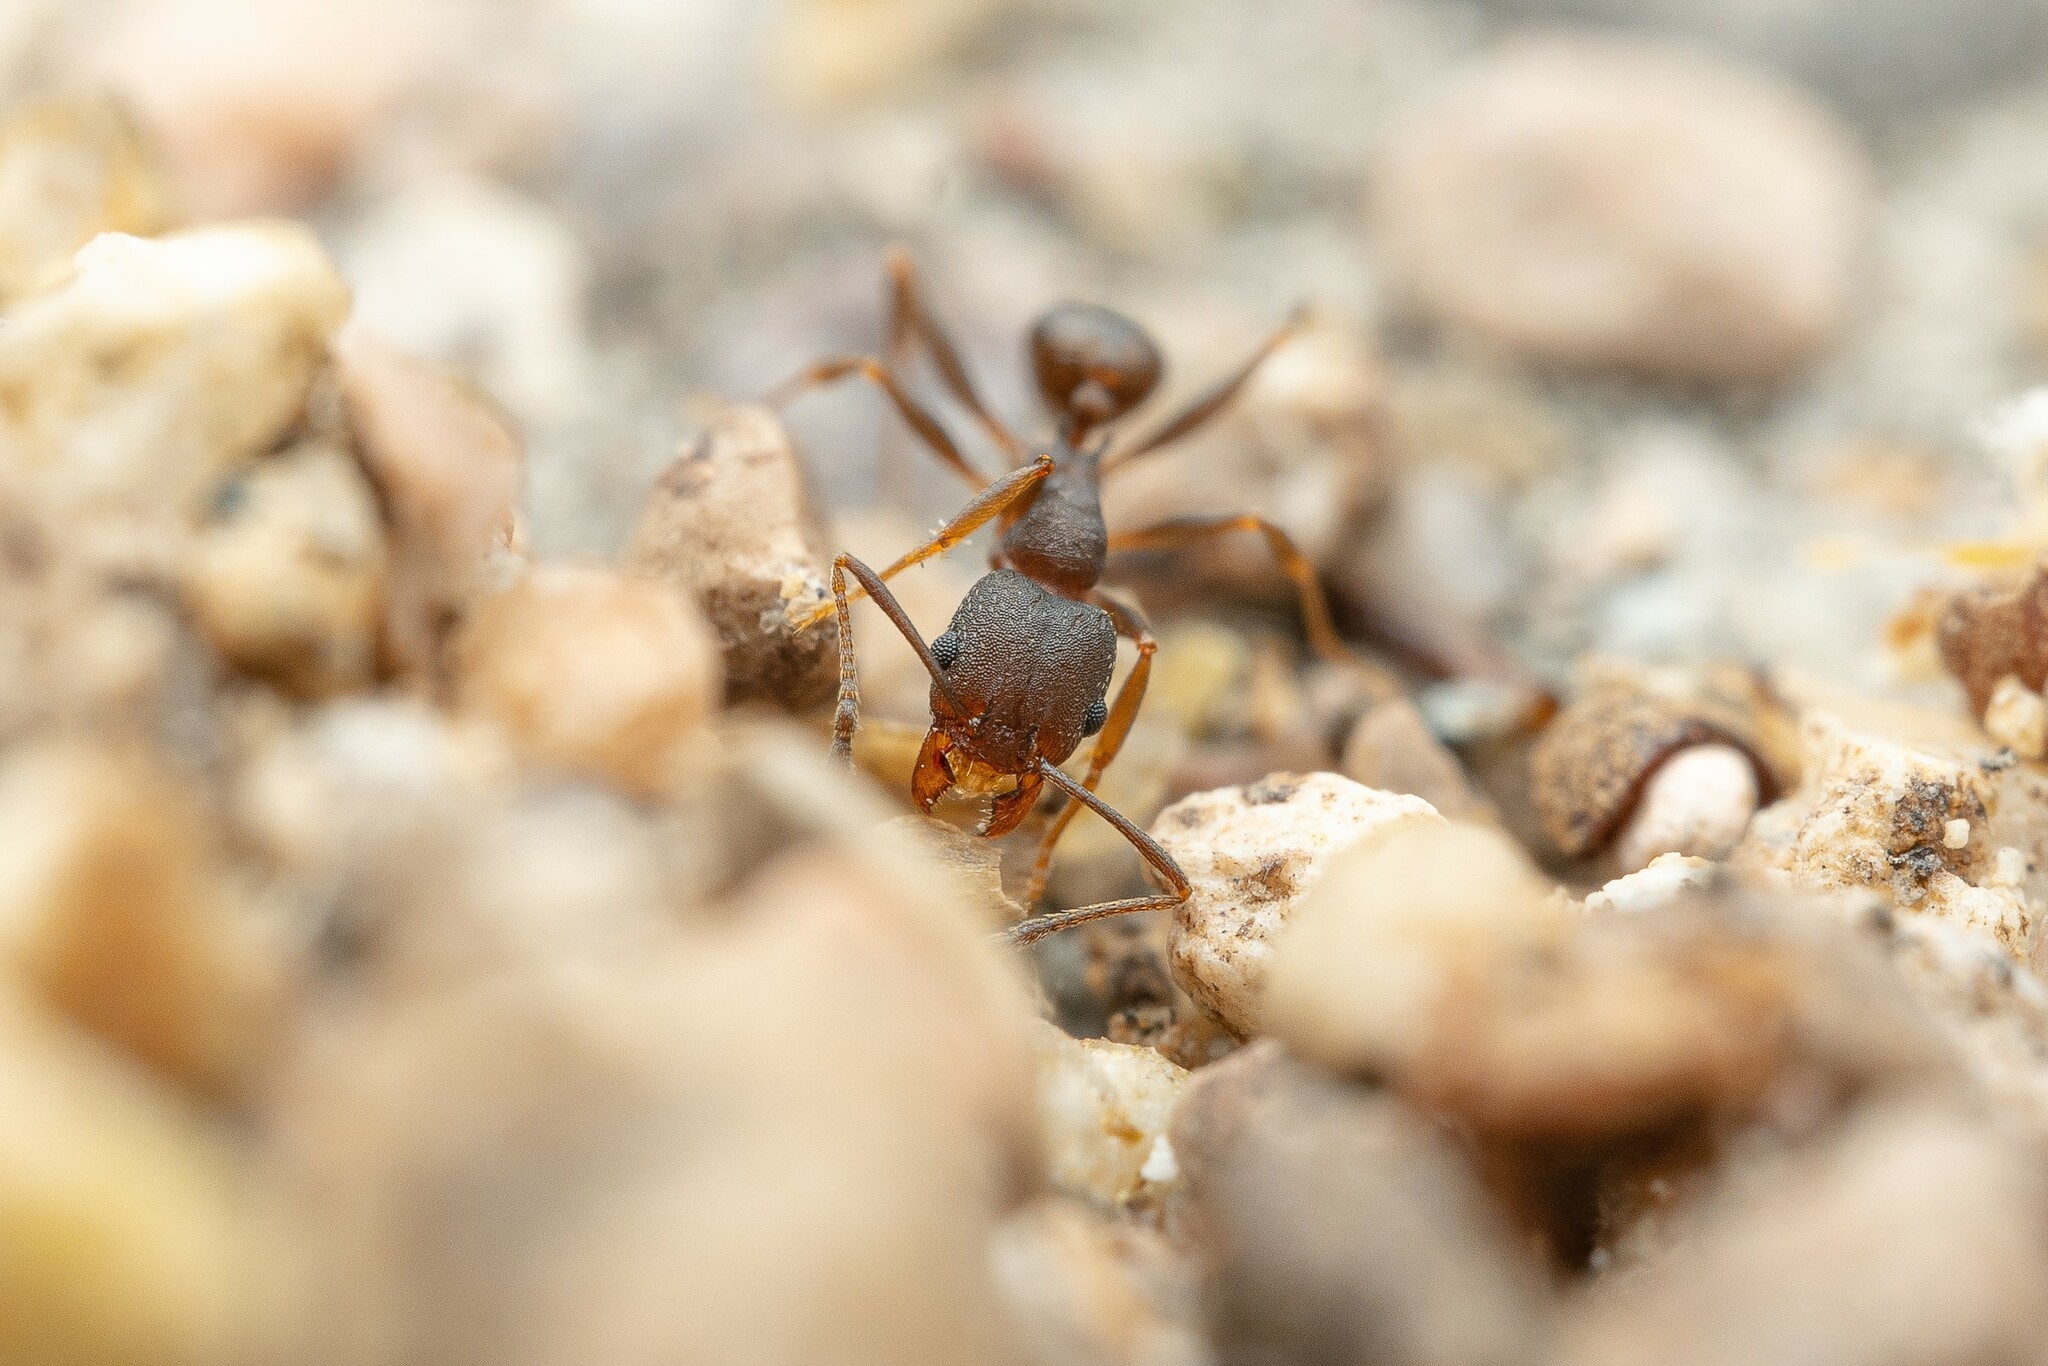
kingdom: Animalia
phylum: Arthropoda
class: Insecta
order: Hymenoptera
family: Formicidae
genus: Pheidole
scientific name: Pheidole
